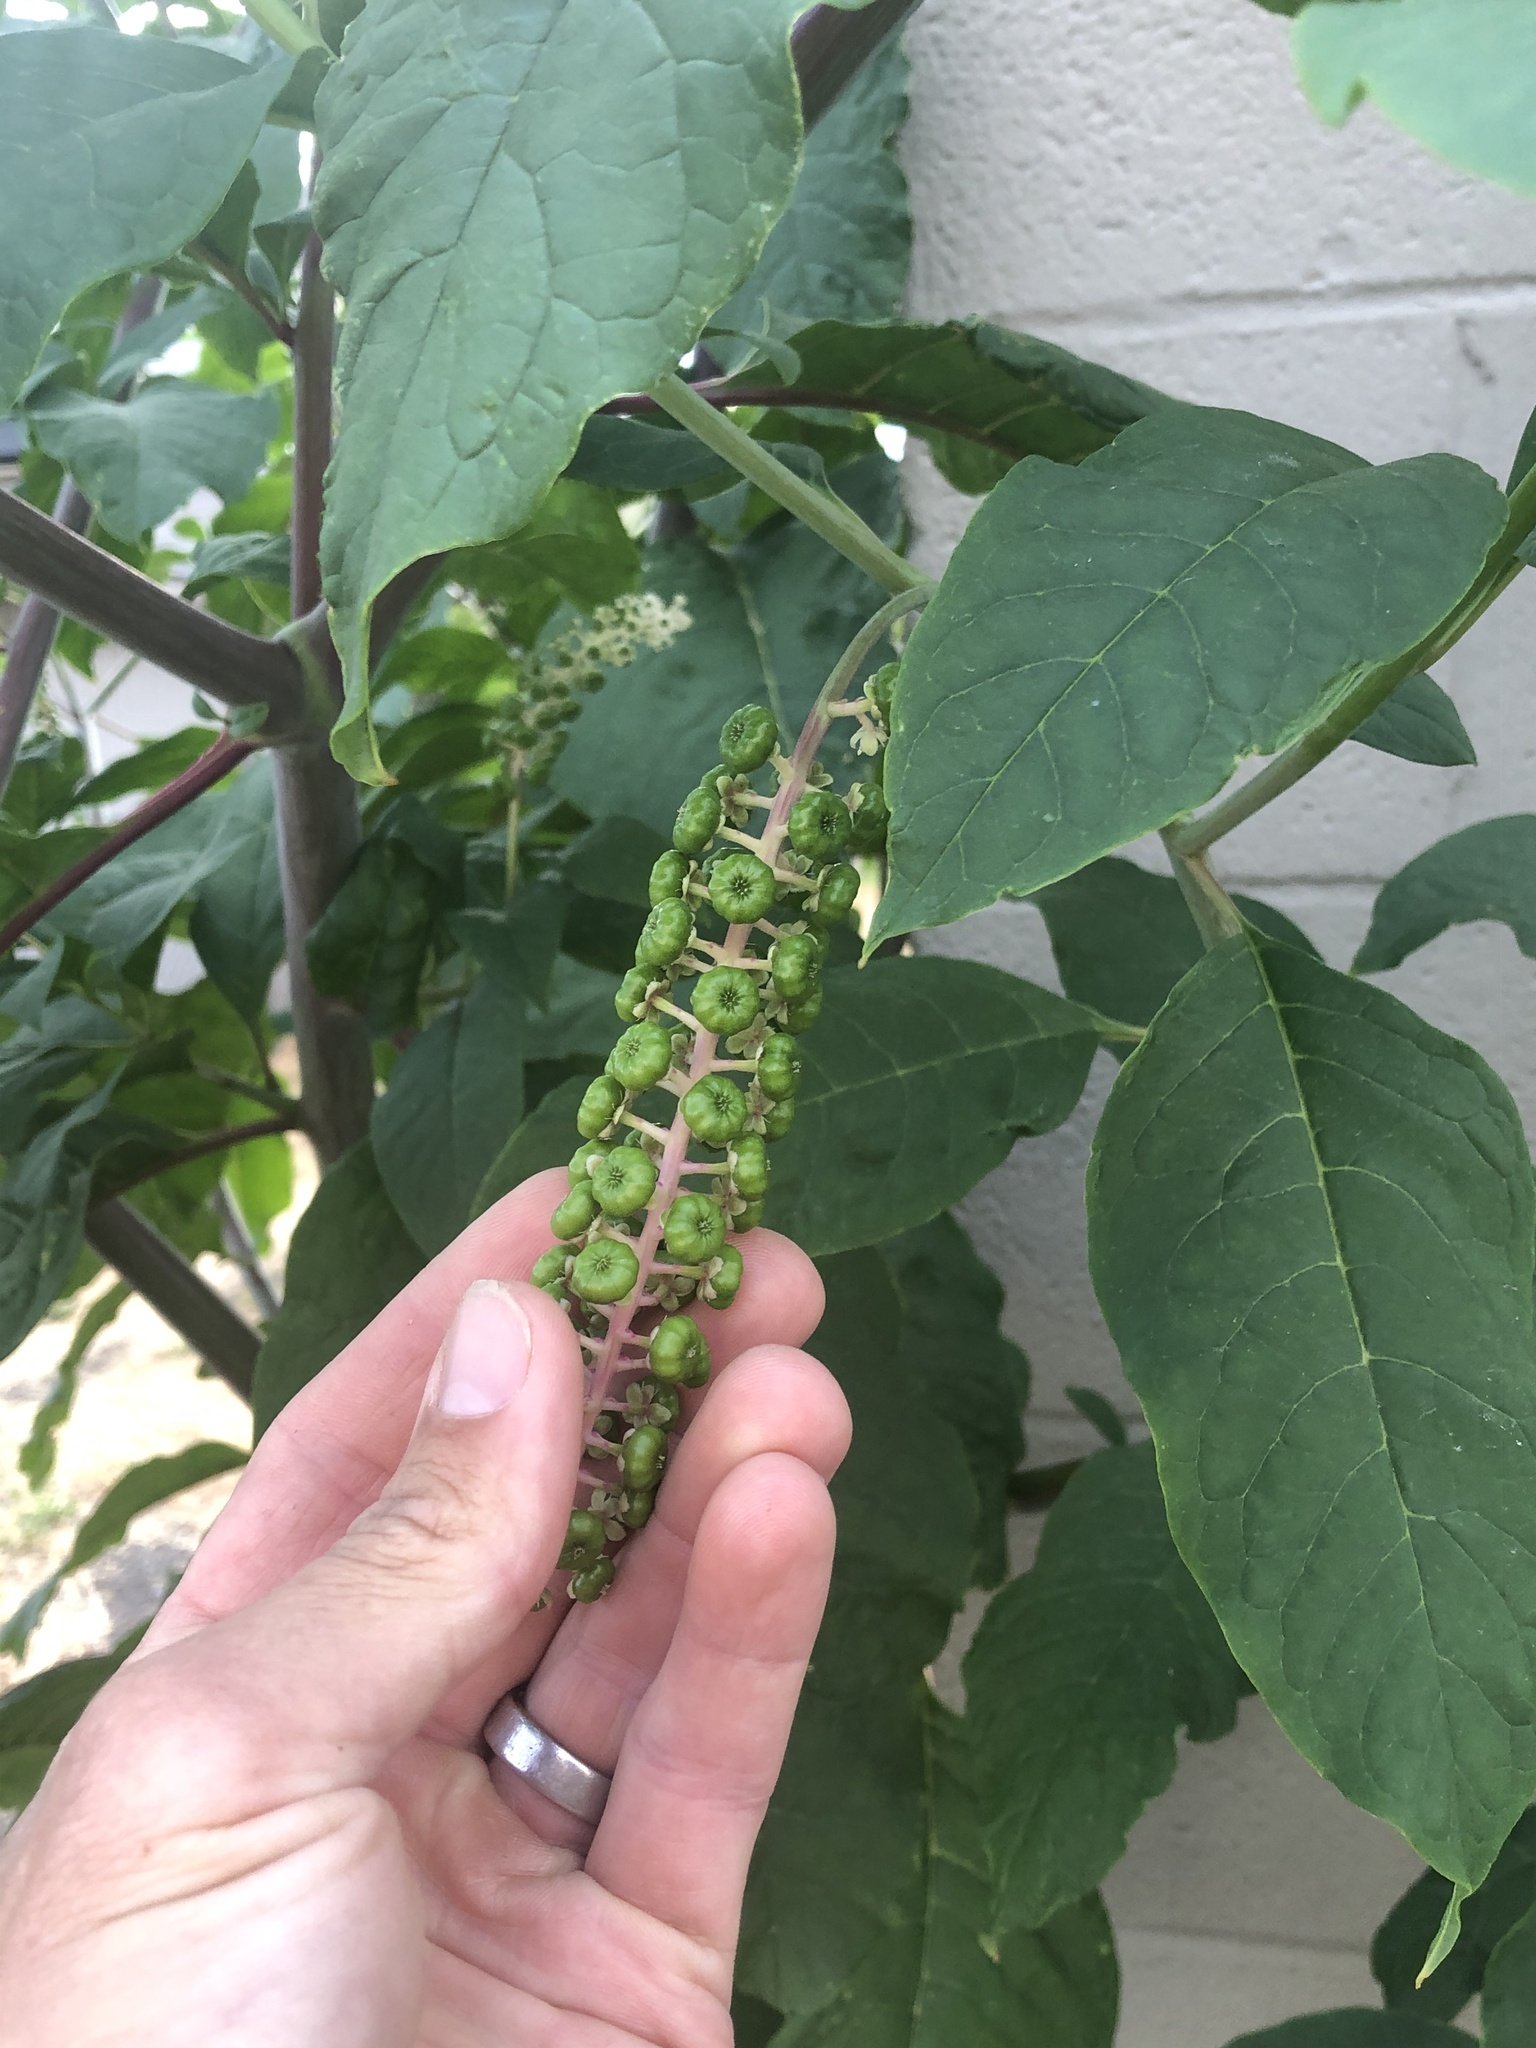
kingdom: Plantae
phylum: Tracheophyta
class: Magnoliopsida
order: Caryophyllales
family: Phytolaccaceae
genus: Phytolacca
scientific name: Phytolacca americana
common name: American pokeweed
